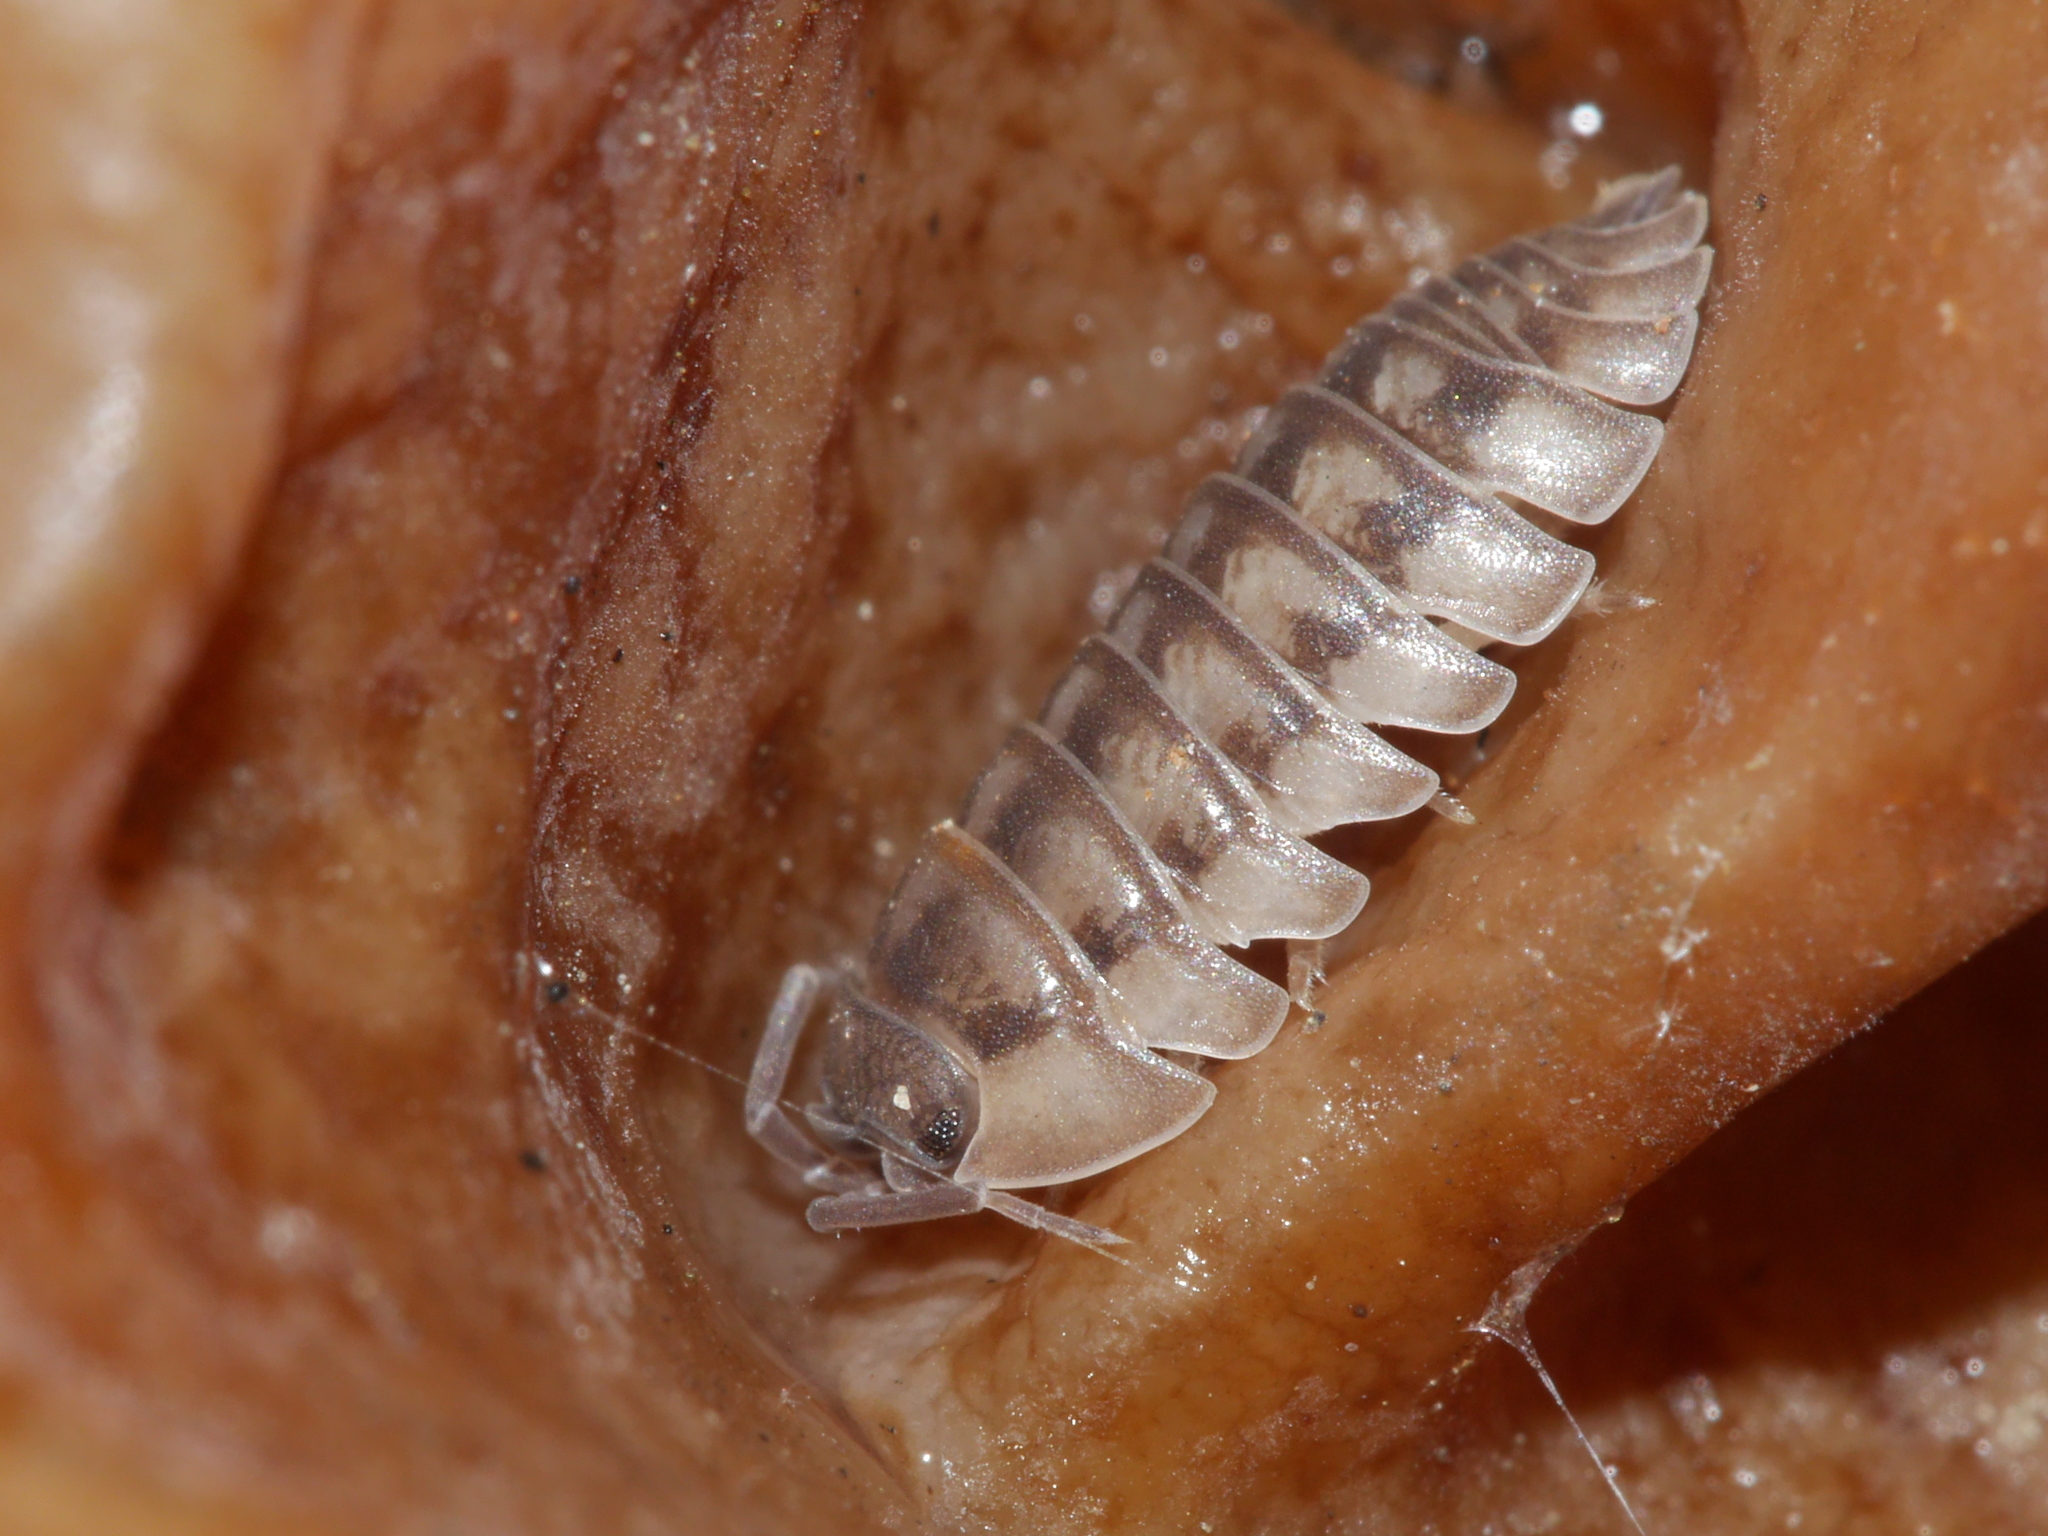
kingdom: Animalia
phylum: Arthropoda
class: Malacostraca
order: Isopoda
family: Armadillidiidae
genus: Armadillidium
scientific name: Armadillidium nasatum
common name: Isopod
